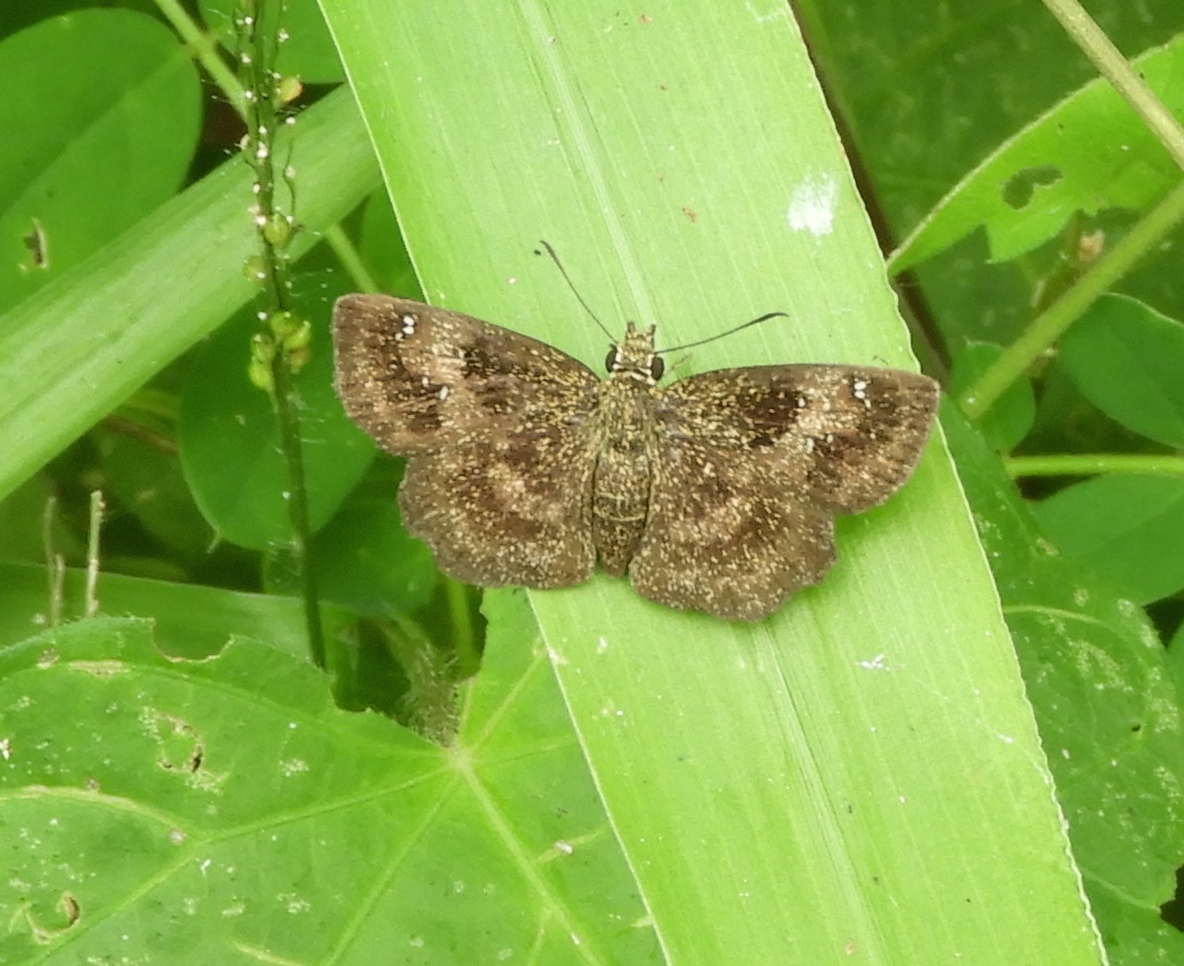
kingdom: Animalia
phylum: Arthropoda
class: Insecta
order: Lepidoptera
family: Hesperiidae
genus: Staphylus
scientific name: Staphylus mazans
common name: Mazans scallopwing
